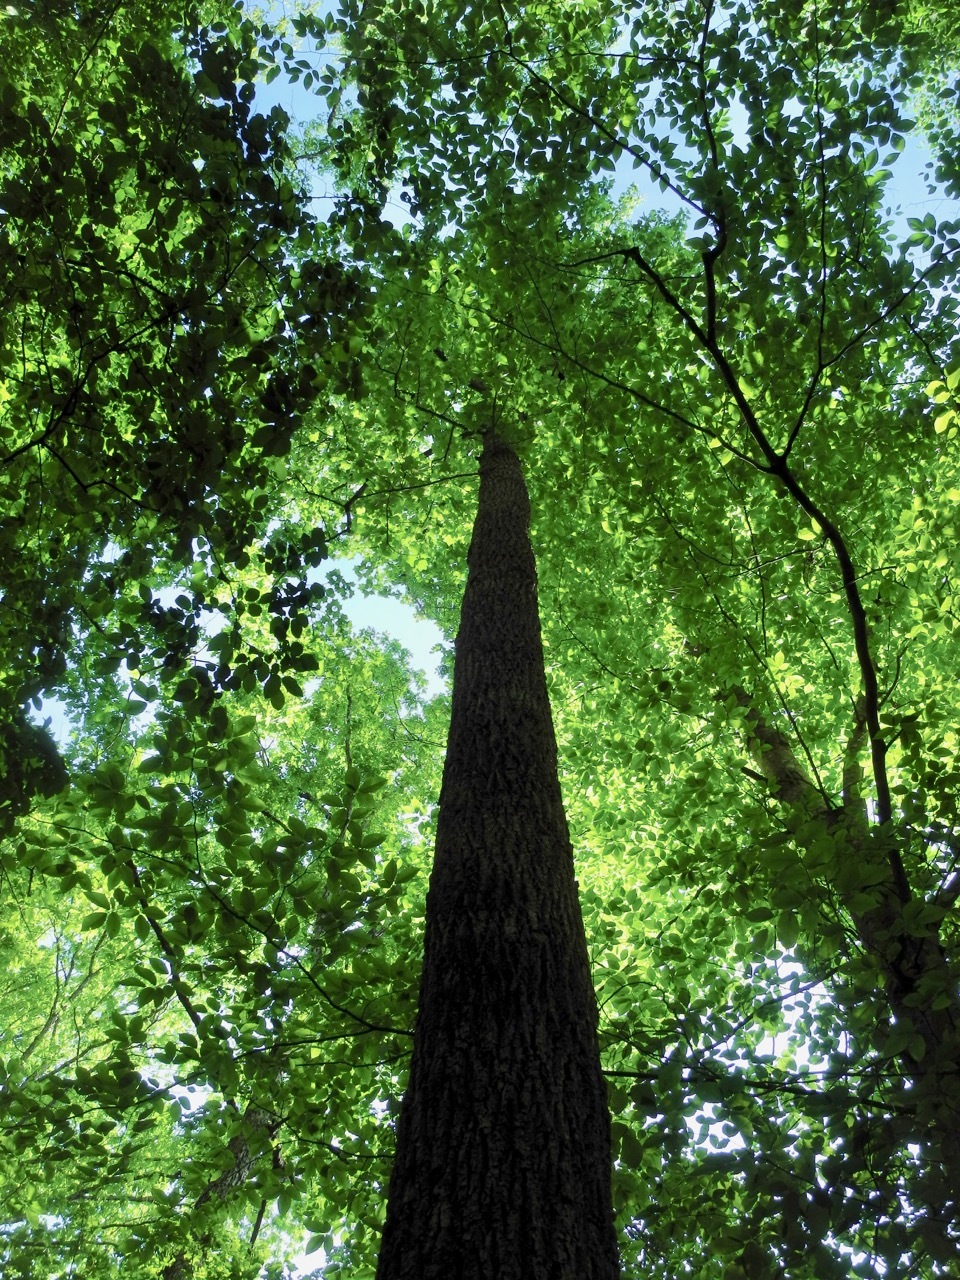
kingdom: Plantae
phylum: Tracheophyta
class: Magnoliopsida
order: Magnoliales
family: Magnoliaceae
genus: Liriodendron
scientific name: Liriodendron tulipifera
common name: Tulip tree
